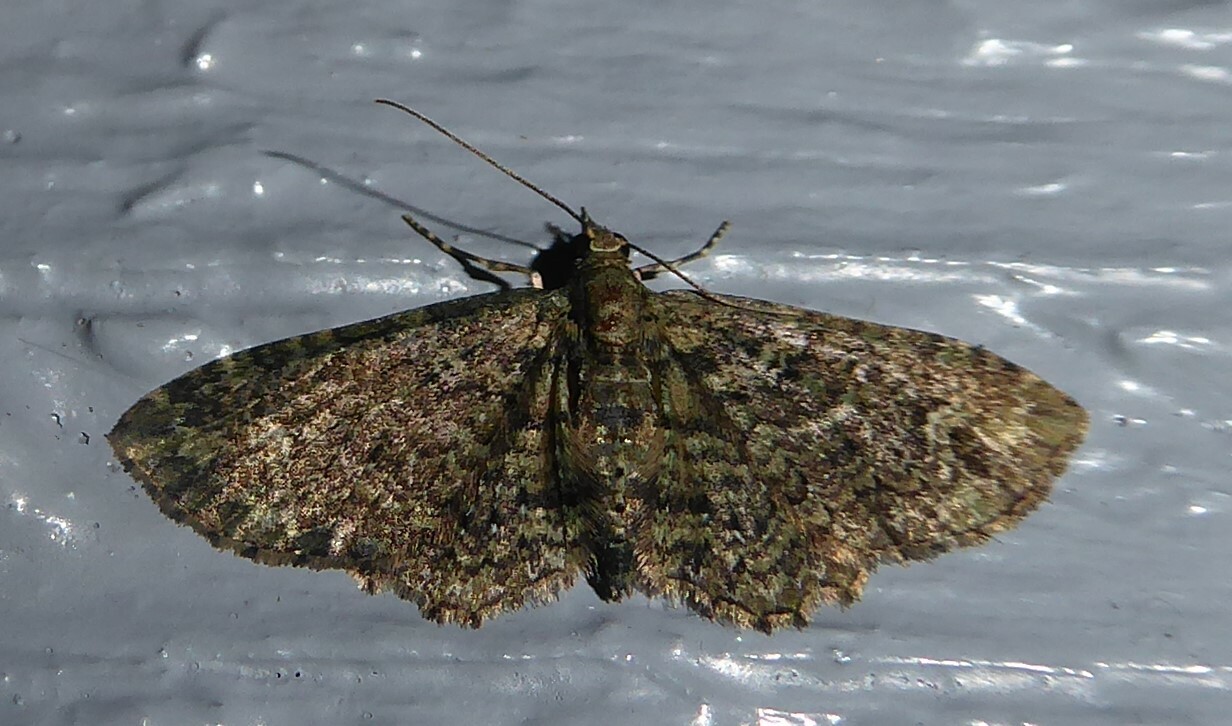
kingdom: Animalia
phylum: Arthropoda
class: Insecta
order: Lepidoptera
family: Geometridae
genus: Pasiphilodes
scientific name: Pasiphilodes testulata
